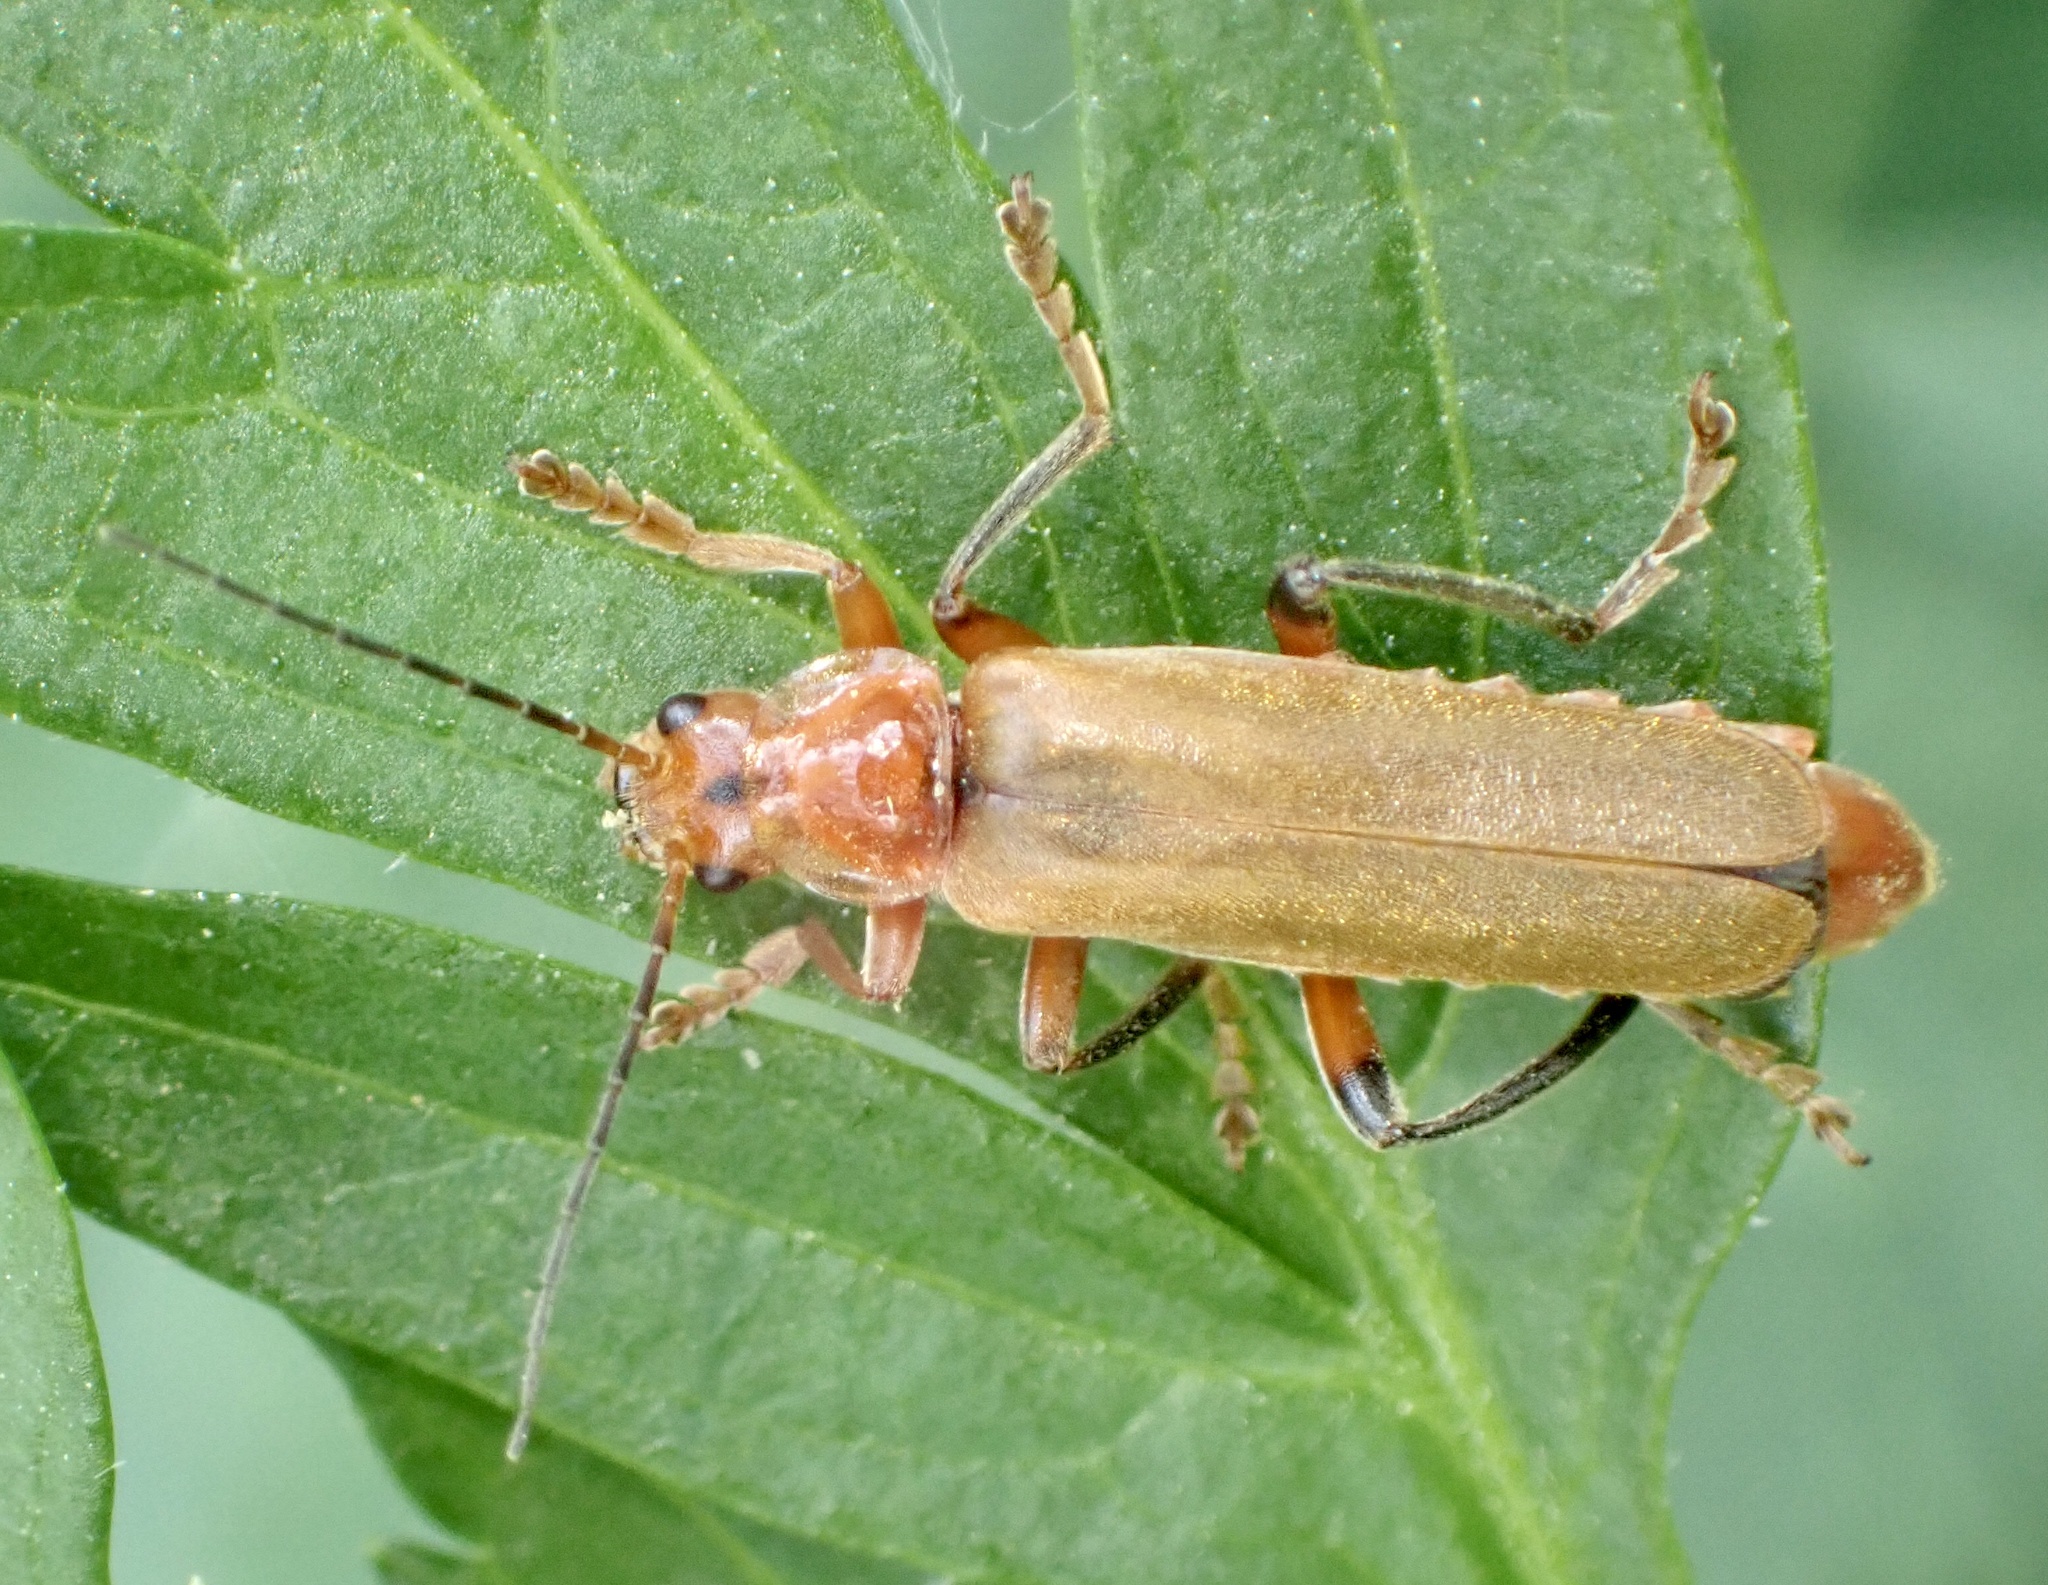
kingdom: Animalia
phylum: Arthropoda
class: Insecta
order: Coleoptera
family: Cantharidae
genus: Cantharis
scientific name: Cantharis livida
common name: Livid soldier beetle
